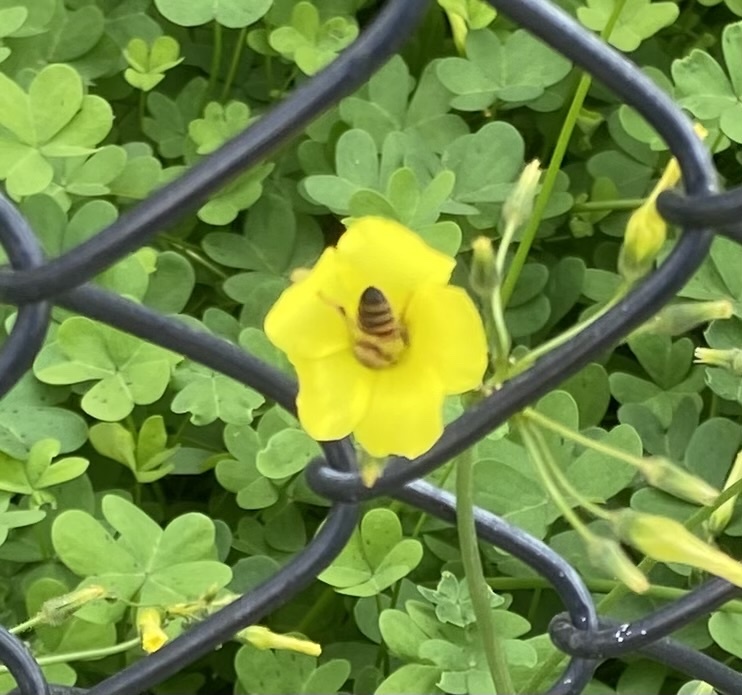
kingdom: Animalia
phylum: Arthropoda
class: Insecta
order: Hymenoptera
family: Apidae
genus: Apis
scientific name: Apis mellifera
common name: Honey bee
